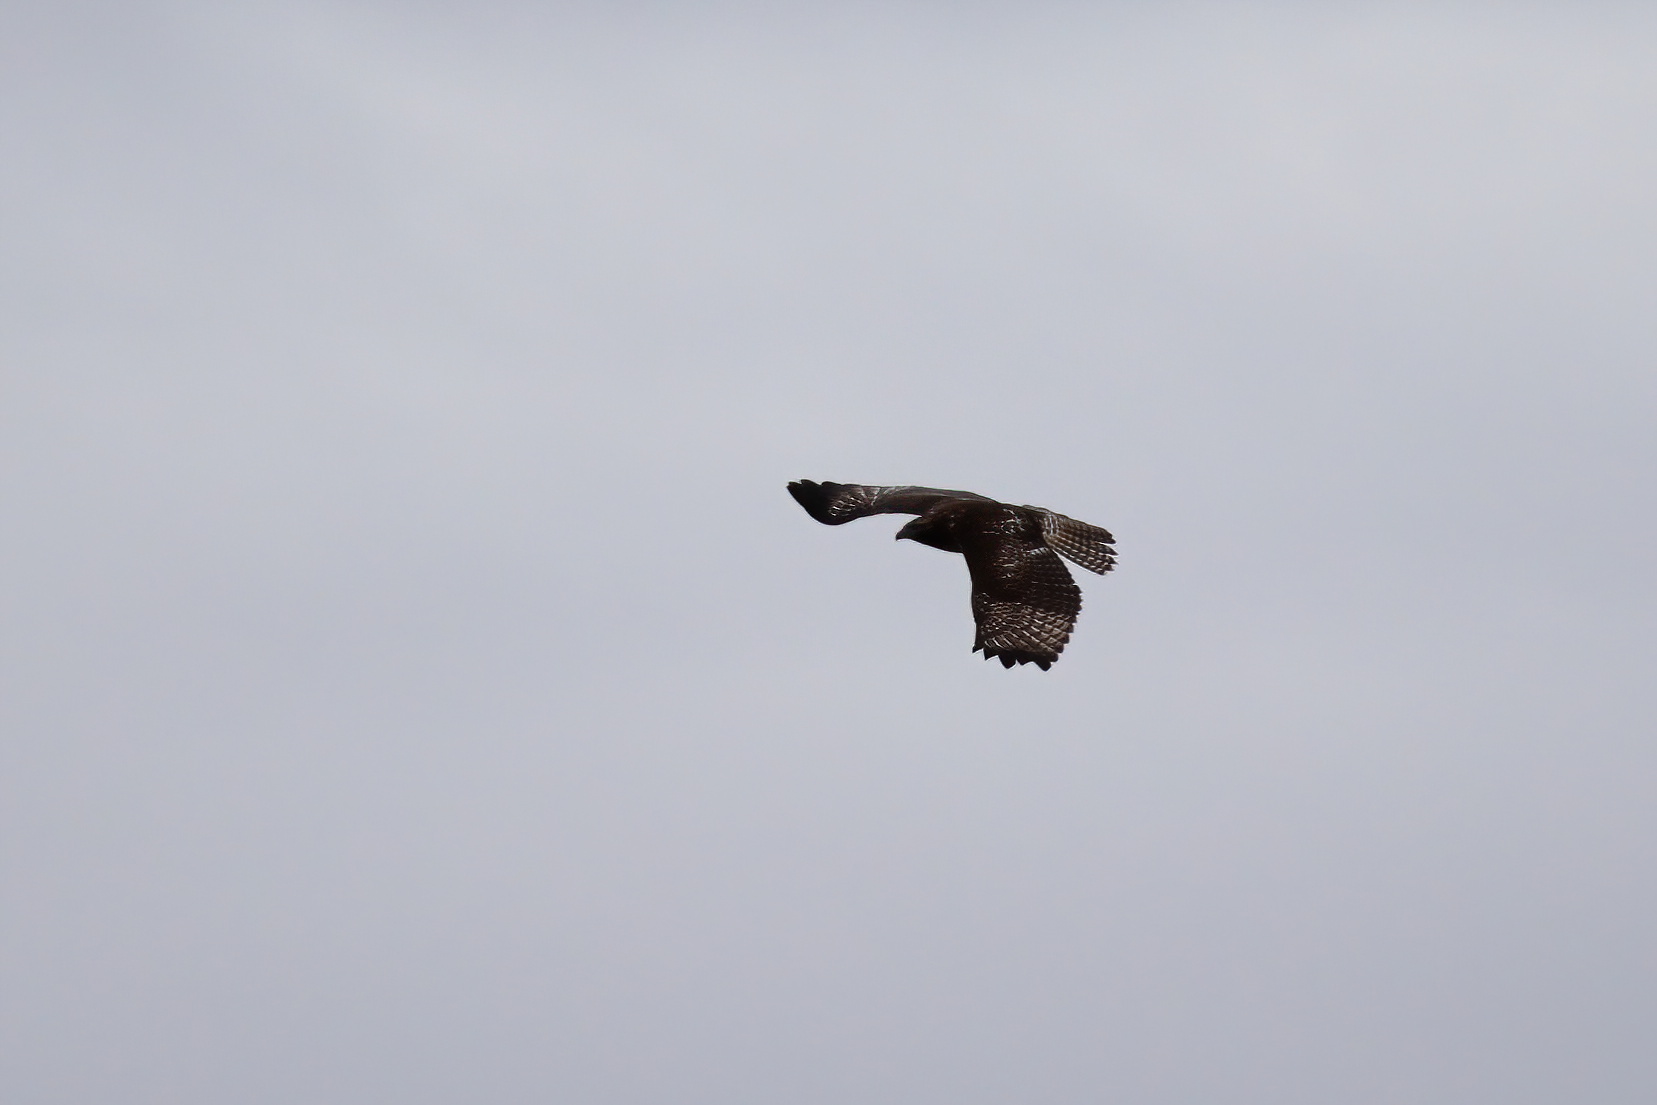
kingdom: Animalia
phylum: Chordata
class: Aves
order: Accipitriformes
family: Accipitridae
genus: Buteo
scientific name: Buteo jamaicensis
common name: Red-tailed hawk
